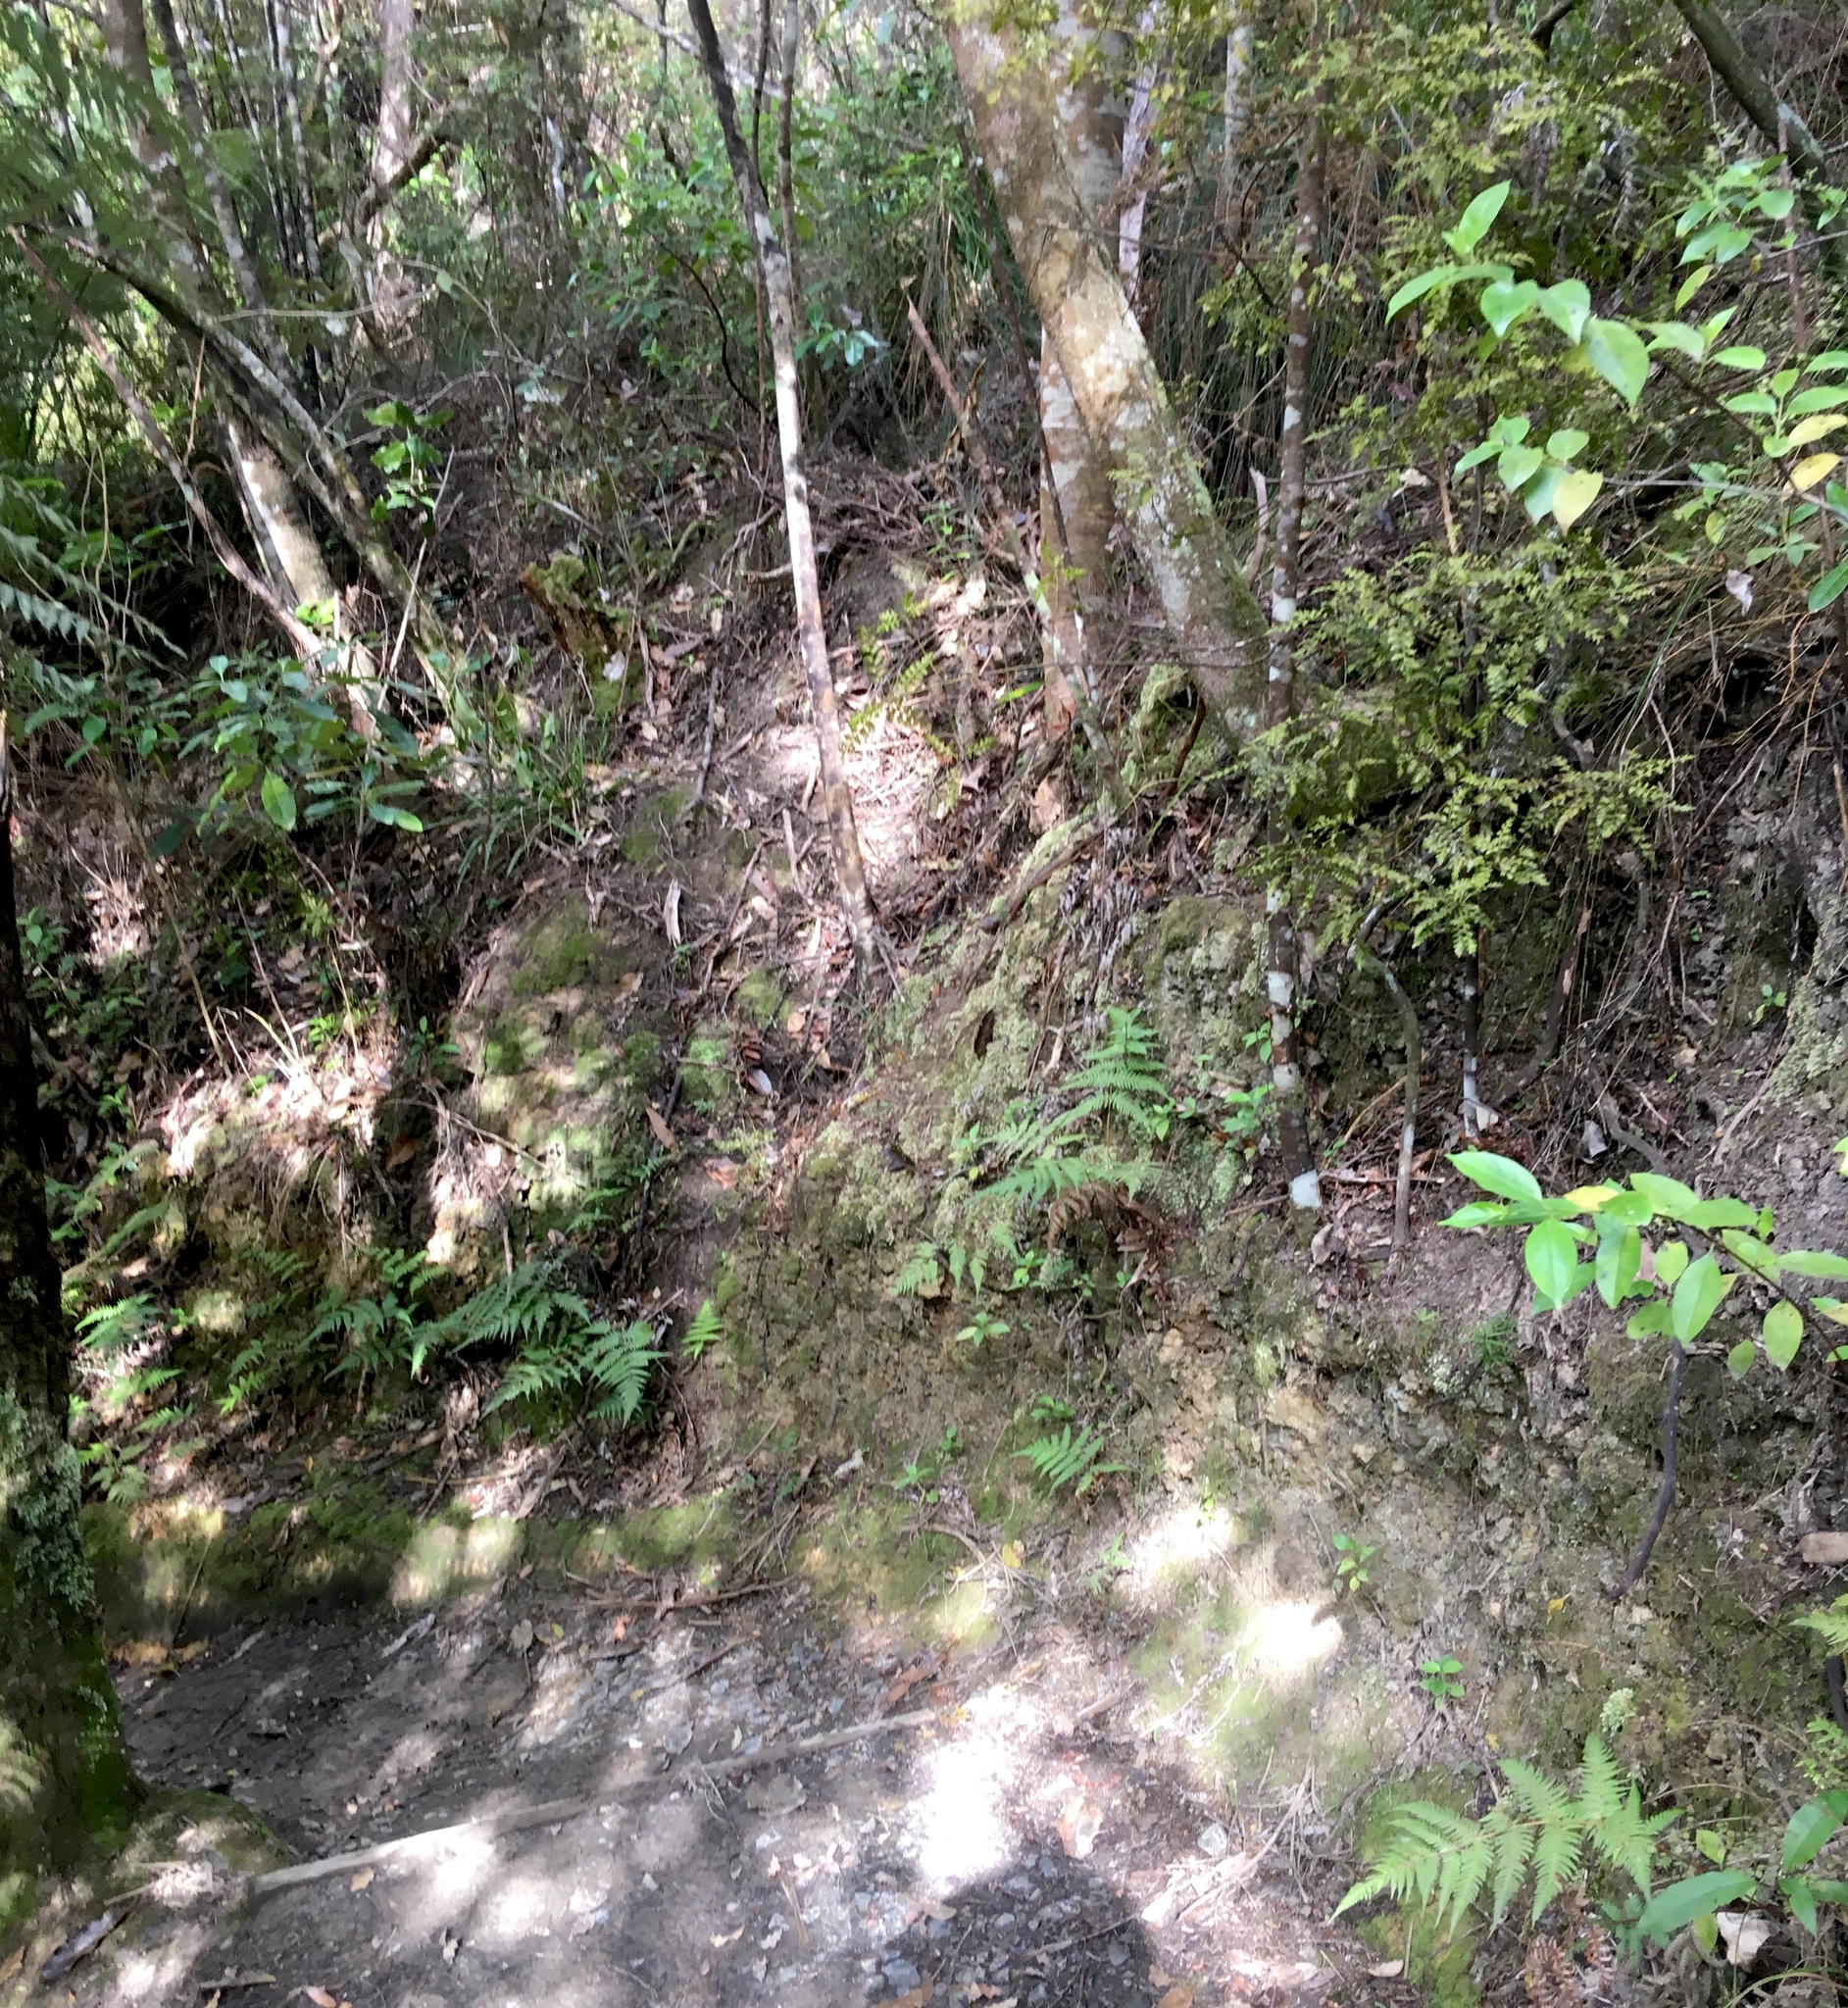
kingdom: Plantae
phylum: Tracheophyta
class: Pinopsida
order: Pinales
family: Phyllocladaceae
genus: Phyllocladus
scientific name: Phyllocladus trichomanoides
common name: Celery pine
